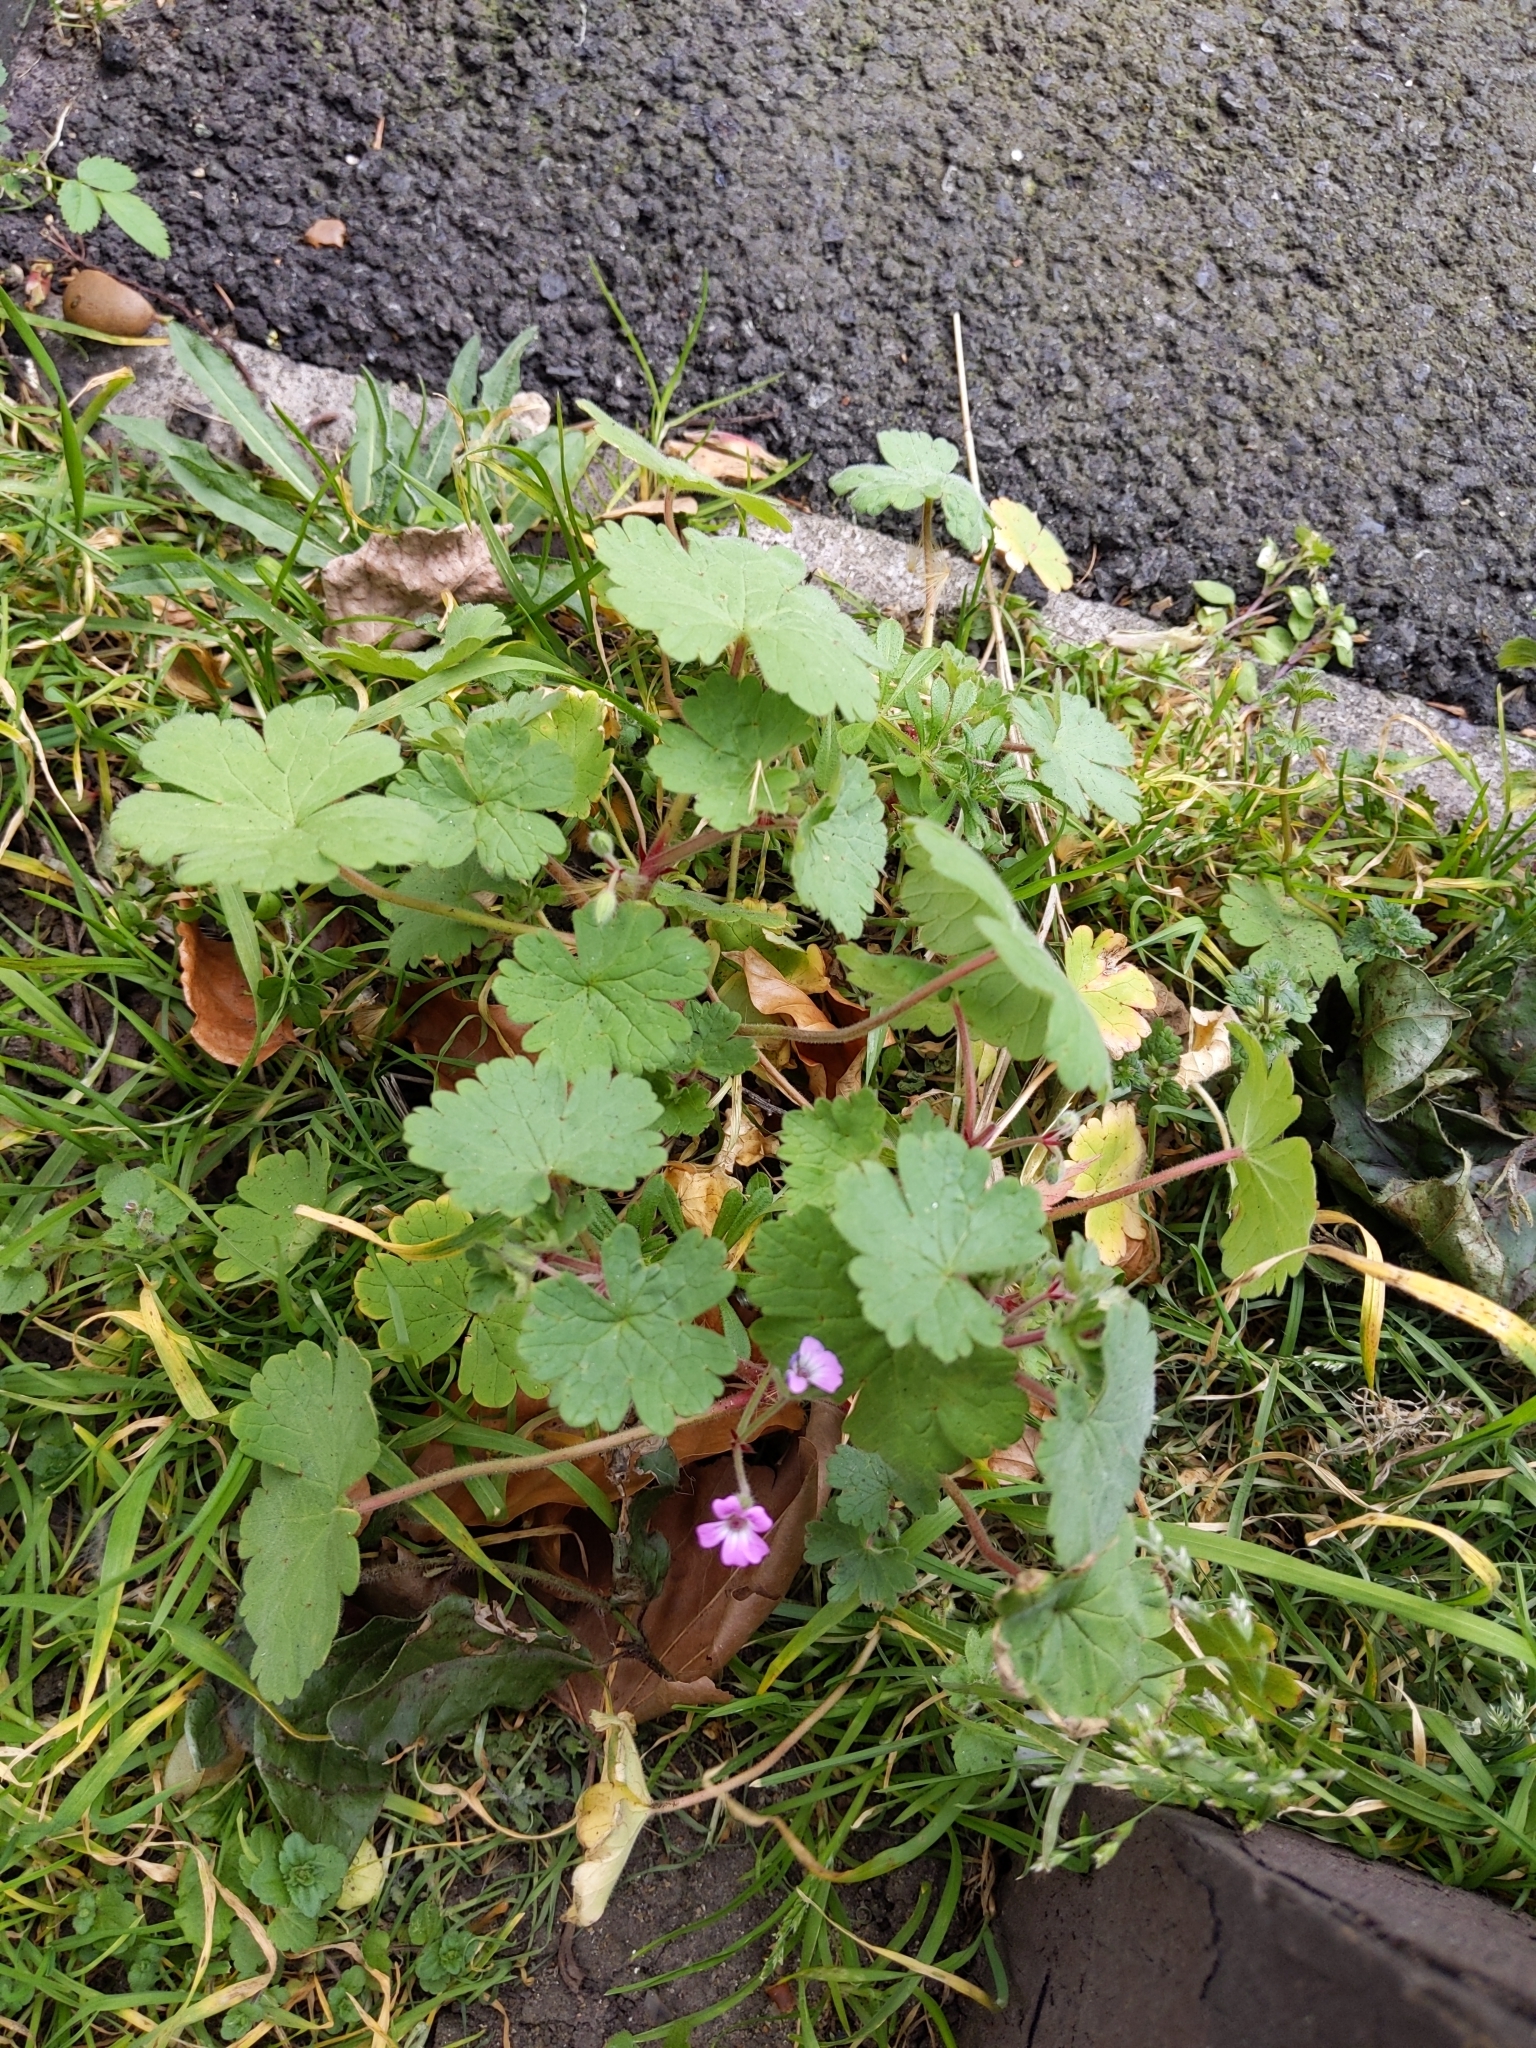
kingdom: Plantae
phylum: Tracheophyta
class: Magnoliopsida
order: Geraniales
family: Geraniaceae
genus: Geranium
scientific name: Geranium rotundifolium
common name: Round-leaved crane's-bill
